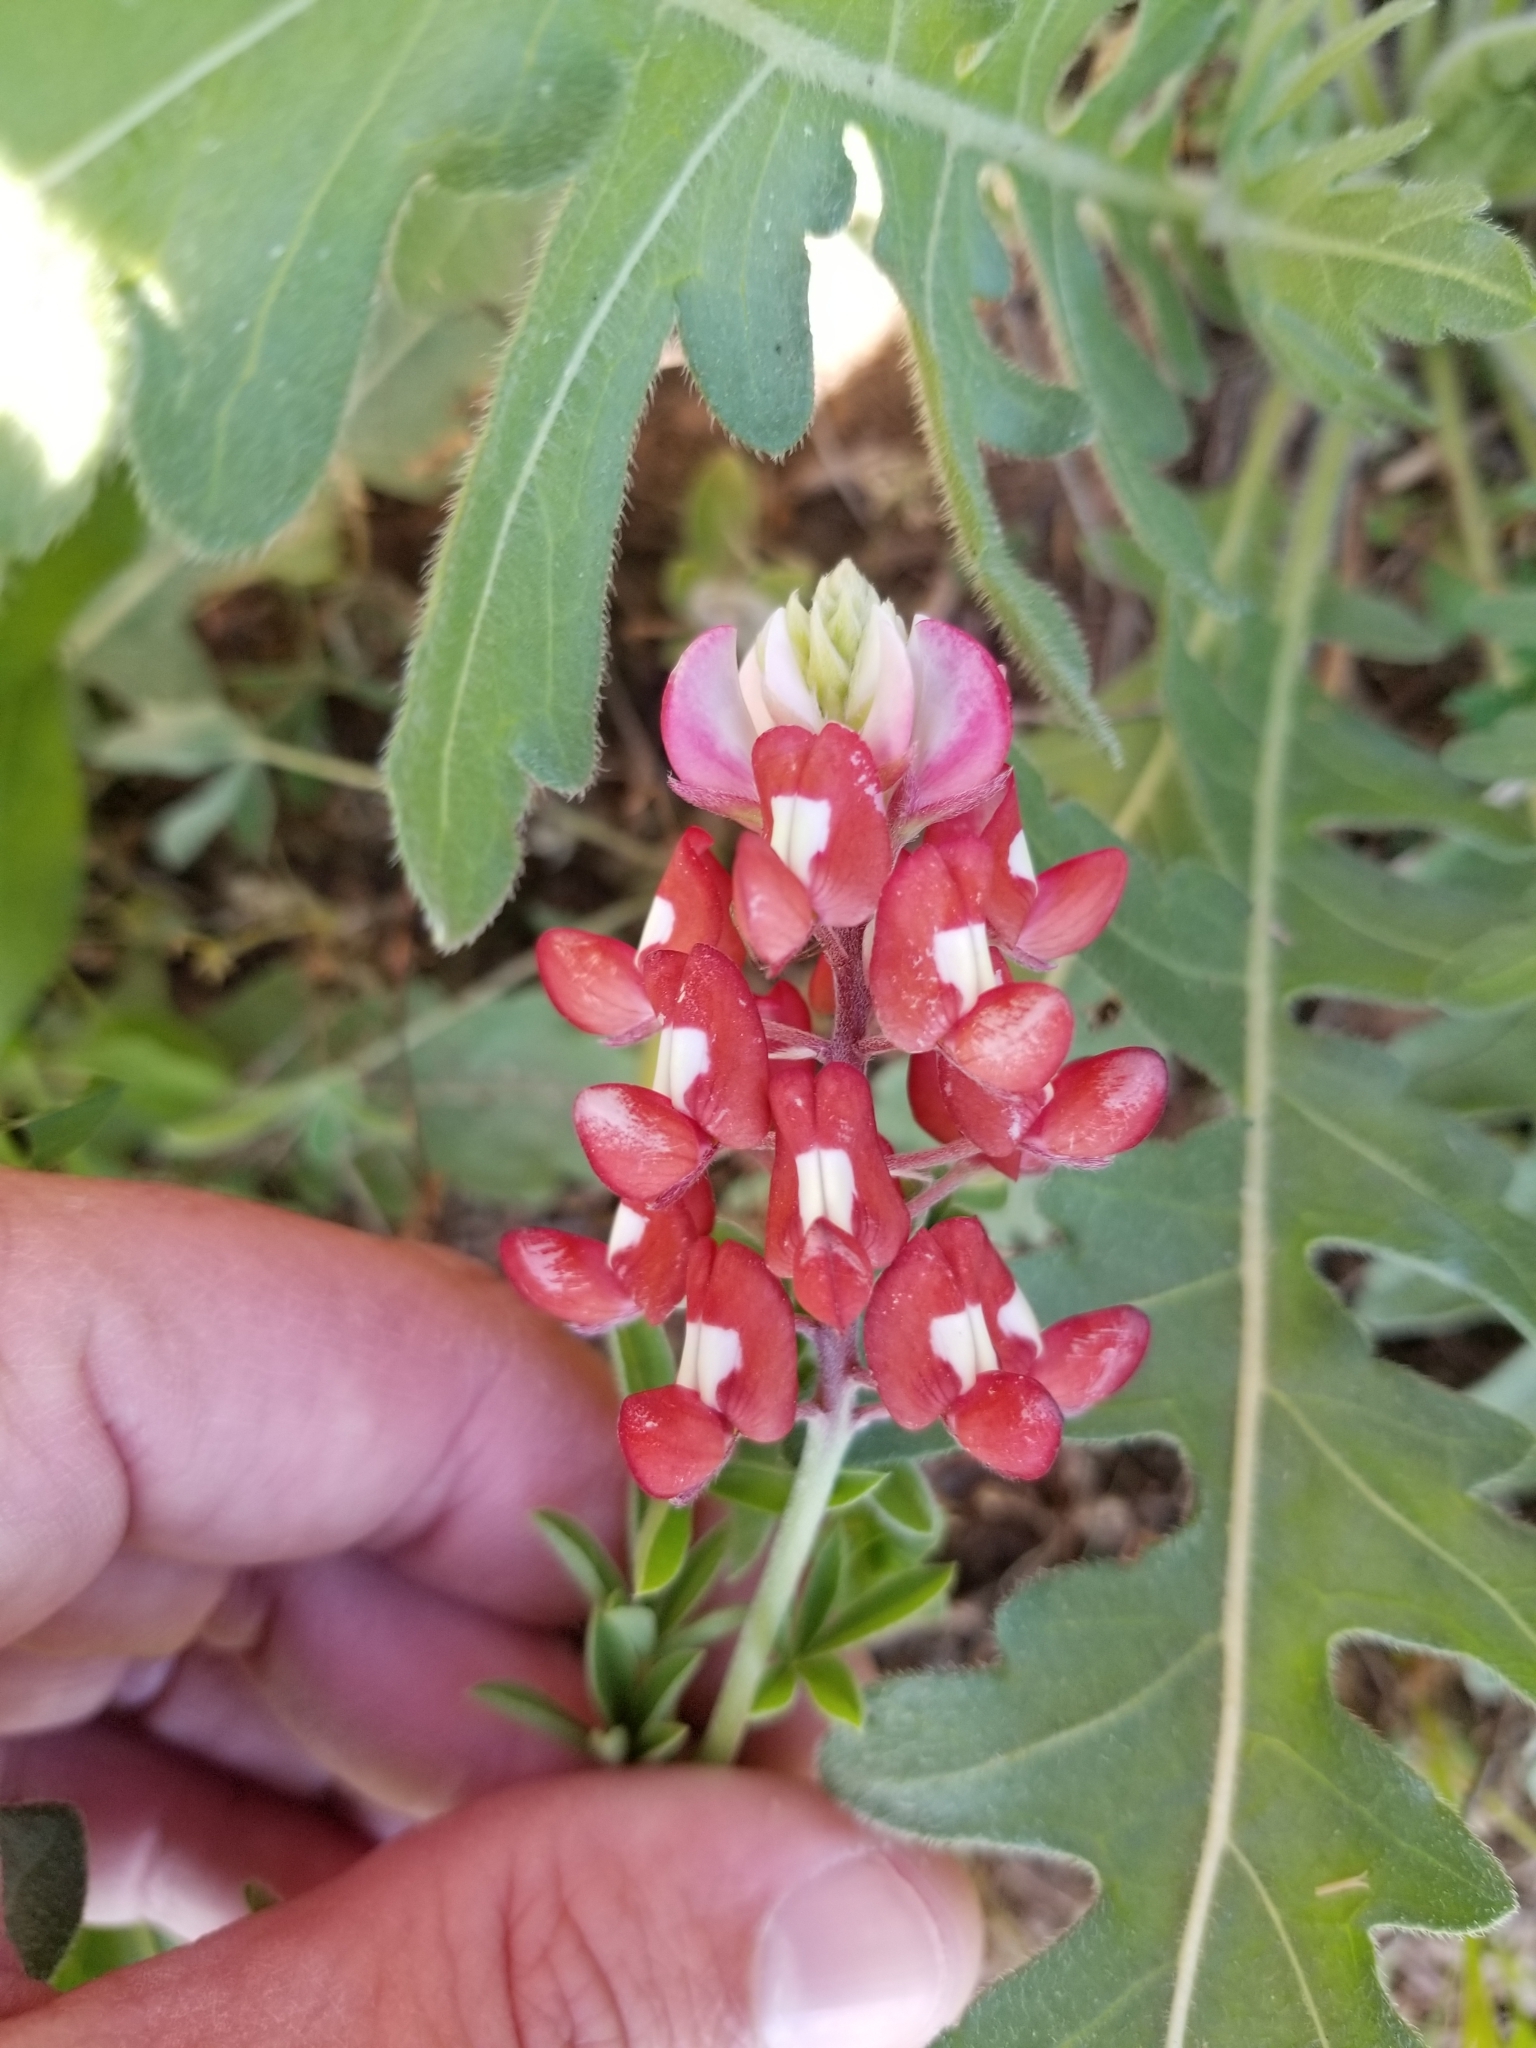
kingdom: Plantae
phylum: Tracheophyta
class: Magnoliopsida
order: Fabales
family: Fabaceae
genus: Lupinus
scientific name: Lupinus texensis
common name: Texas bluebonnet
